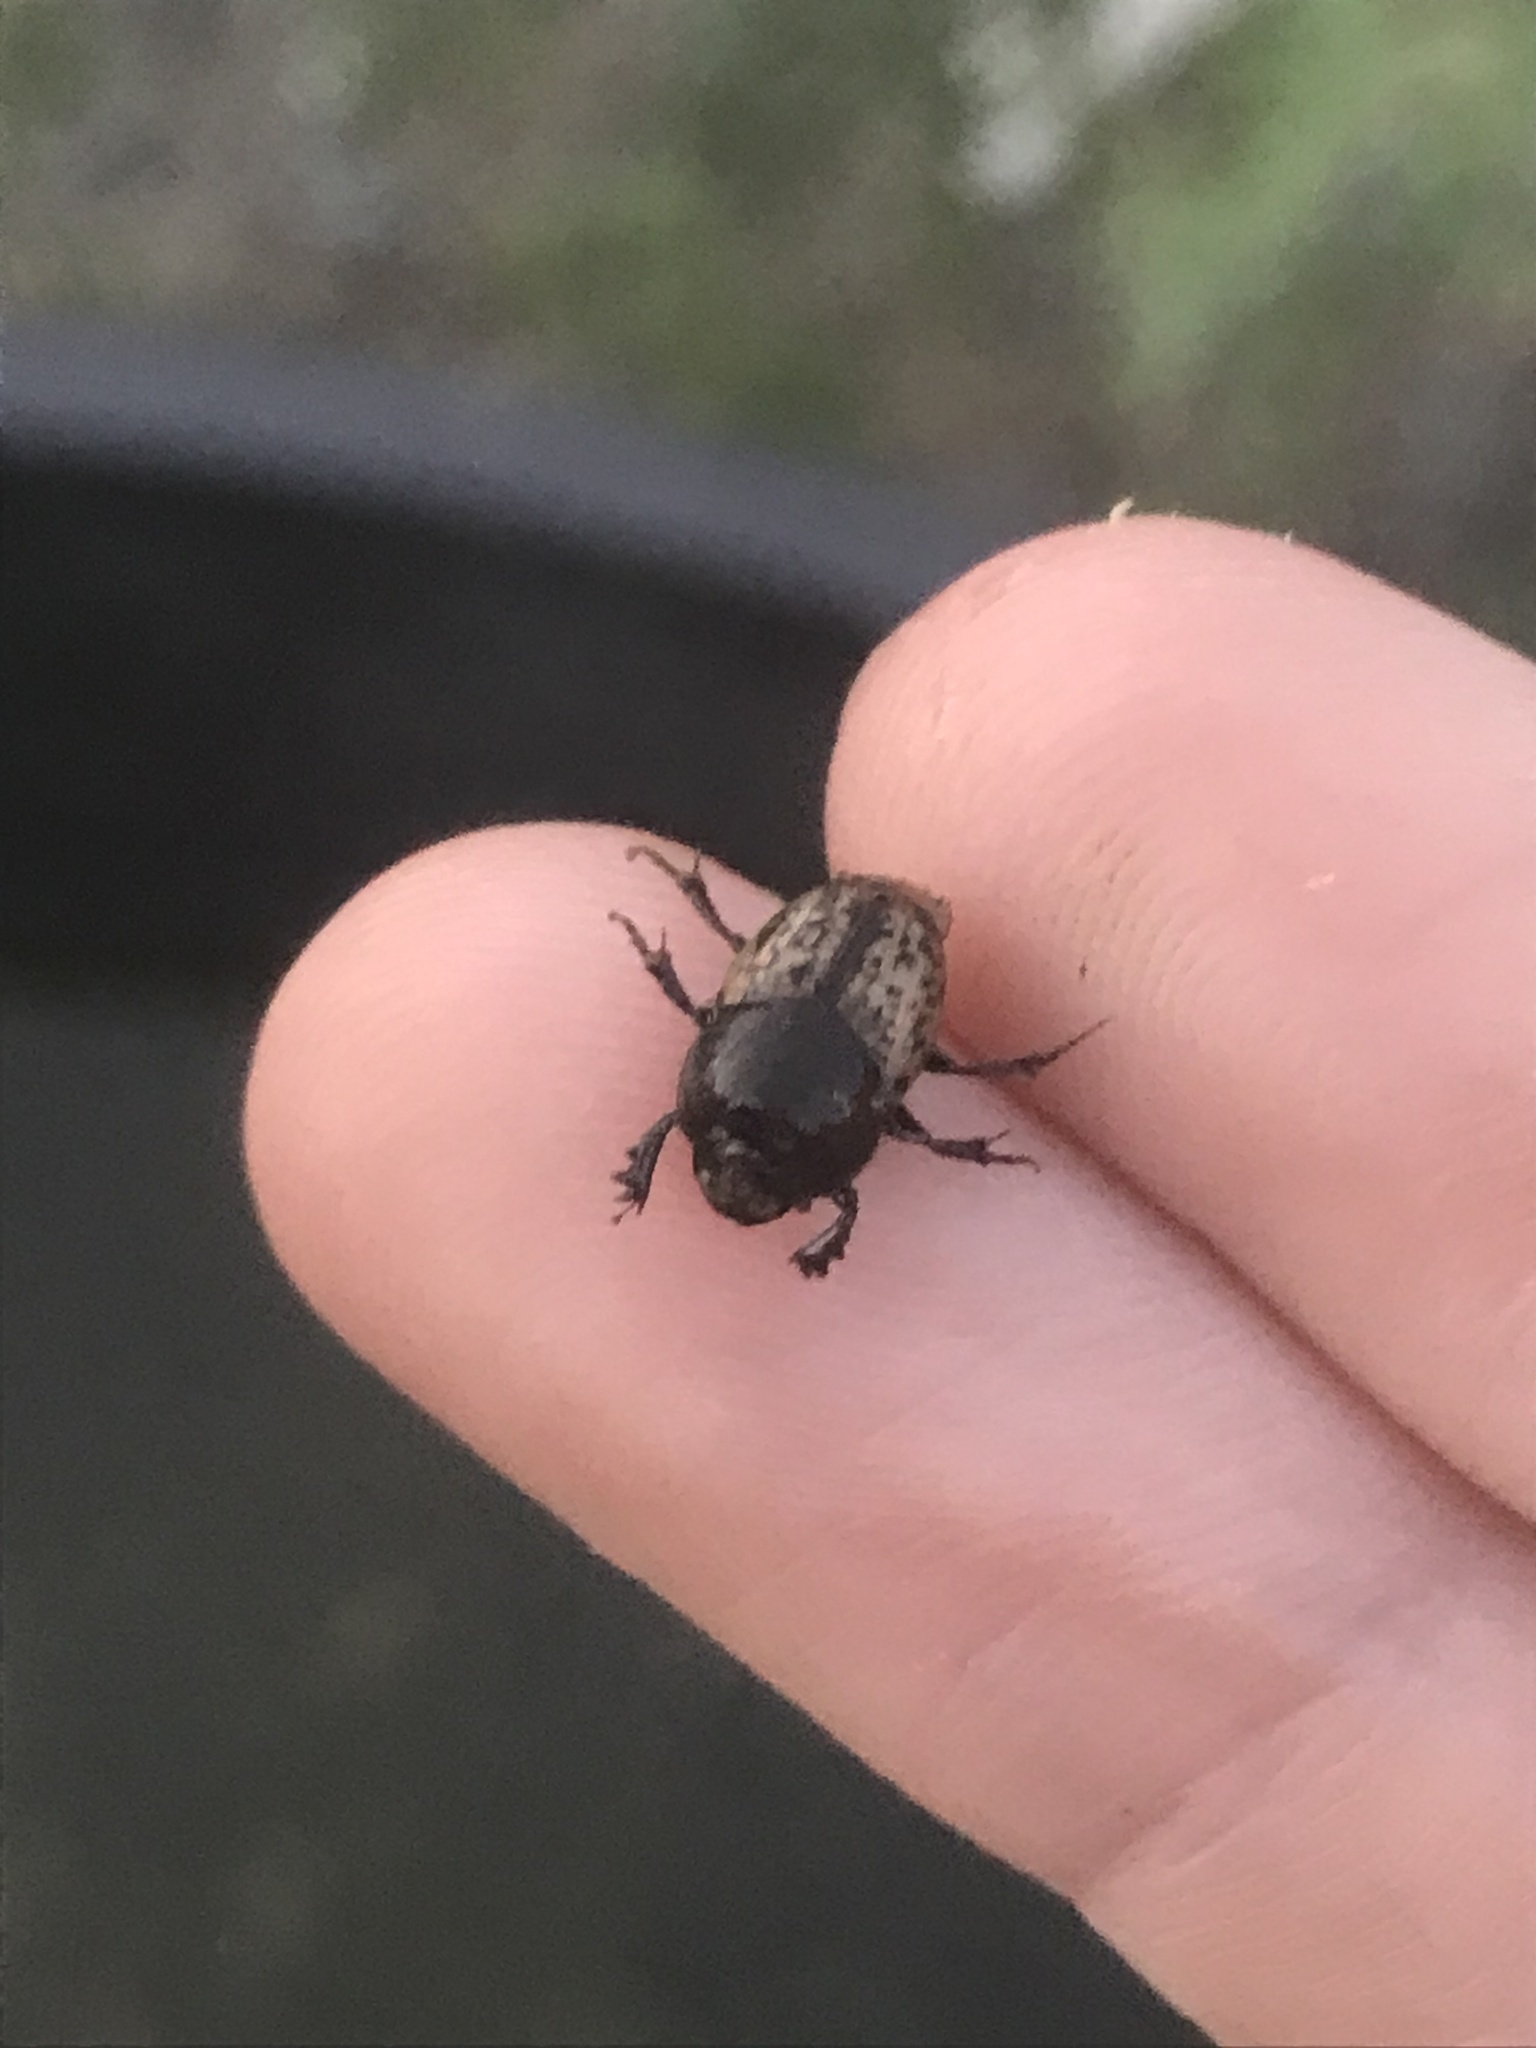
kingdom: Animalia
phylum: Arthropoda
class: Insecta
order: Coleoptera
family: Scarabaeidae
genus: Onthophagus
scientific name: Onthophagus nuchicornis
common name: Mottled dung beetle
